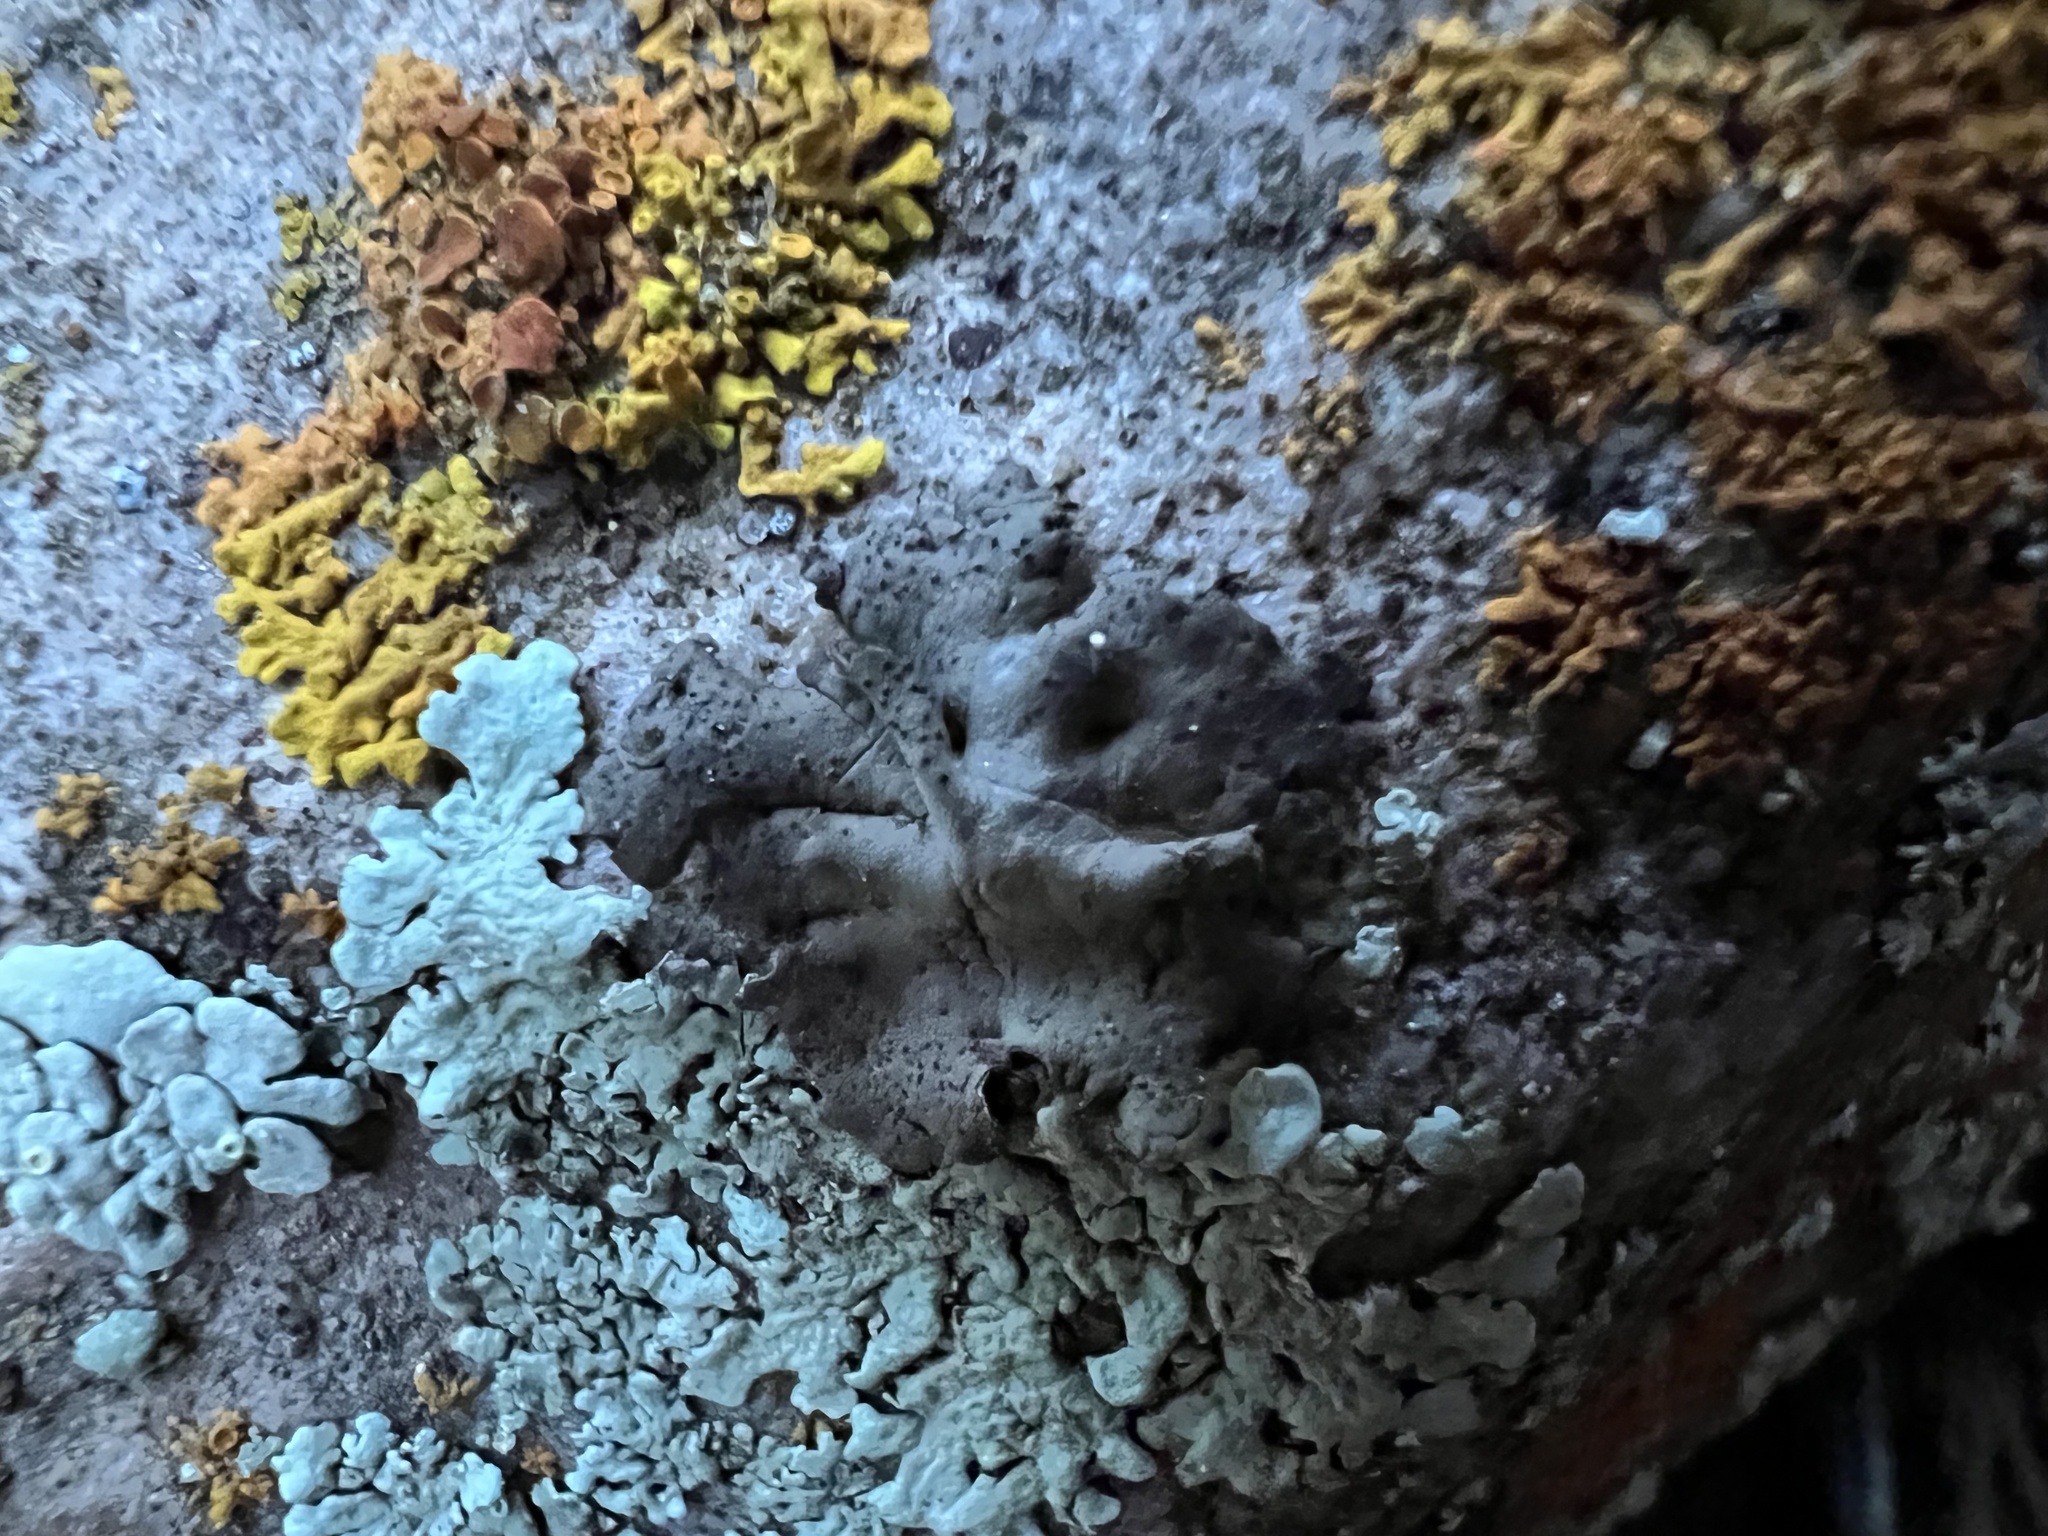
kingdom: Fungi
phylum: Ascomycota
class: Lecanoromycetes
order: Umbilicariales
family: Umbilicariaceae
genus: Umbilicaria
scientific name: Umbilicaria torrefacta
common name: Punctured rock tripe lichen
